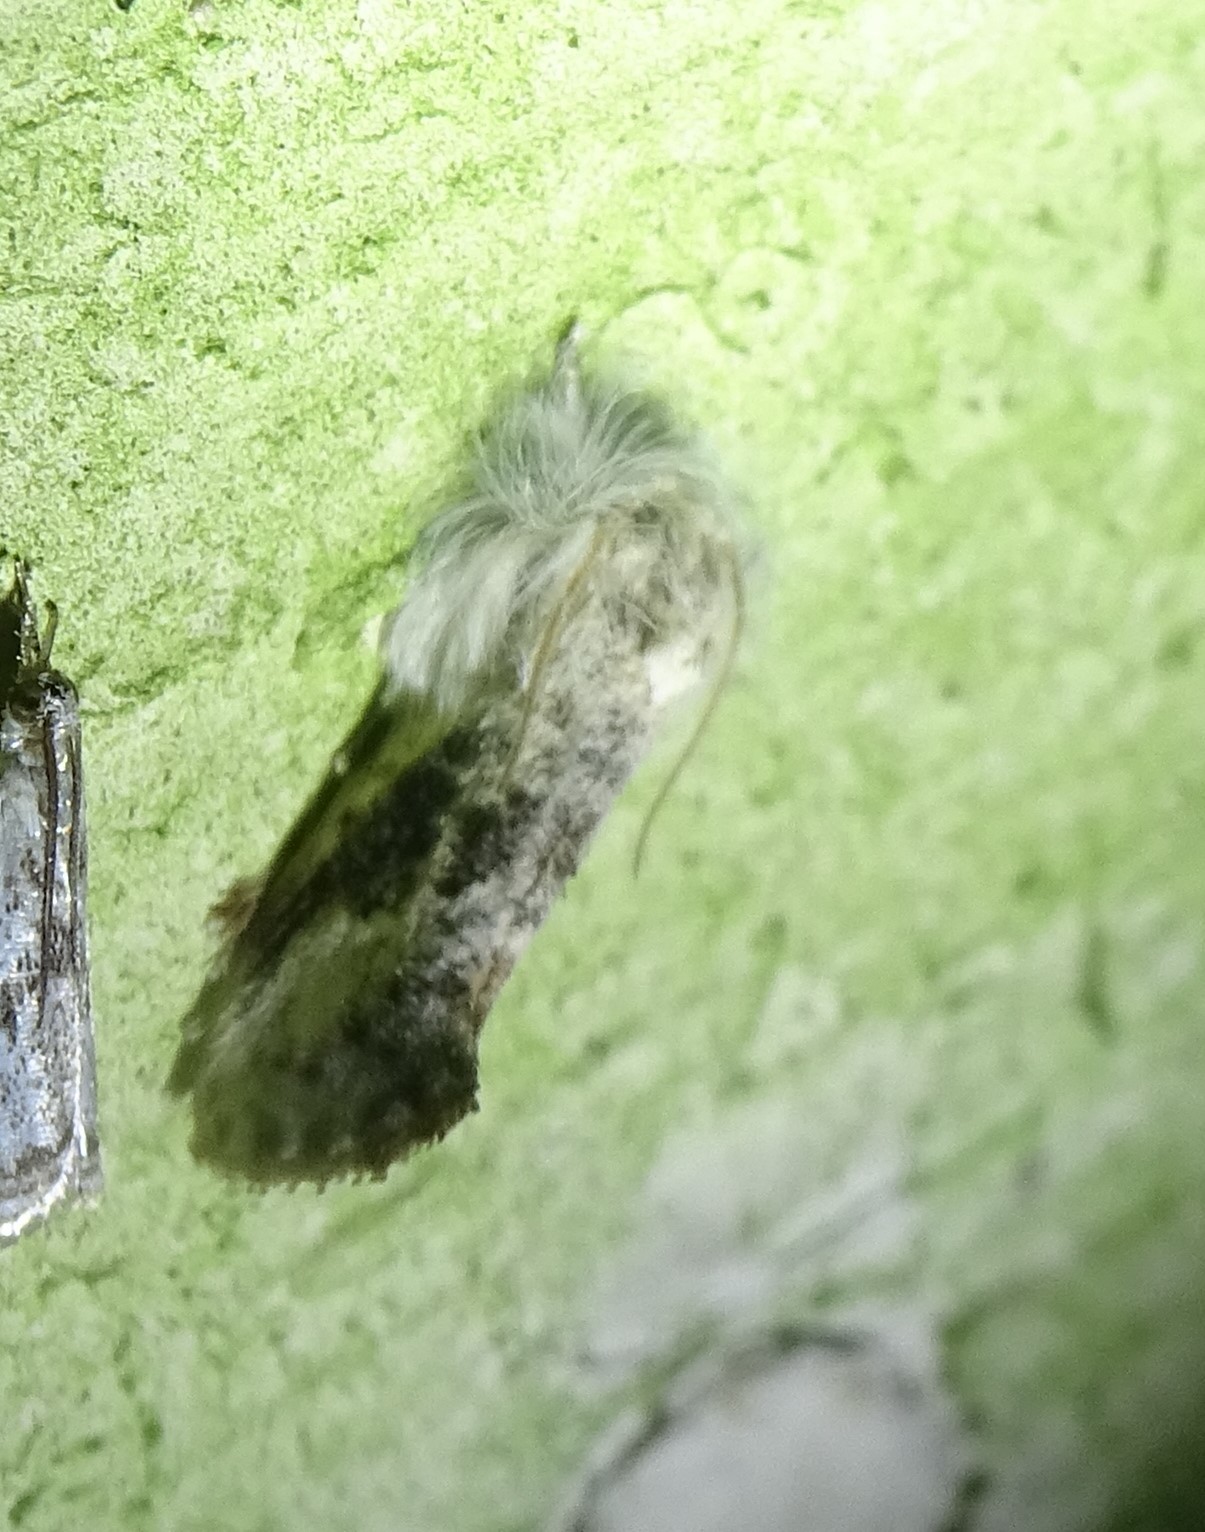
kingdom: Animalia
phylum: Arthropoda
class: Insecta
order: Lepidoptera
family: Tineidae
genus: Acrolophus
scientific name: Acrolophus mycetophagus
